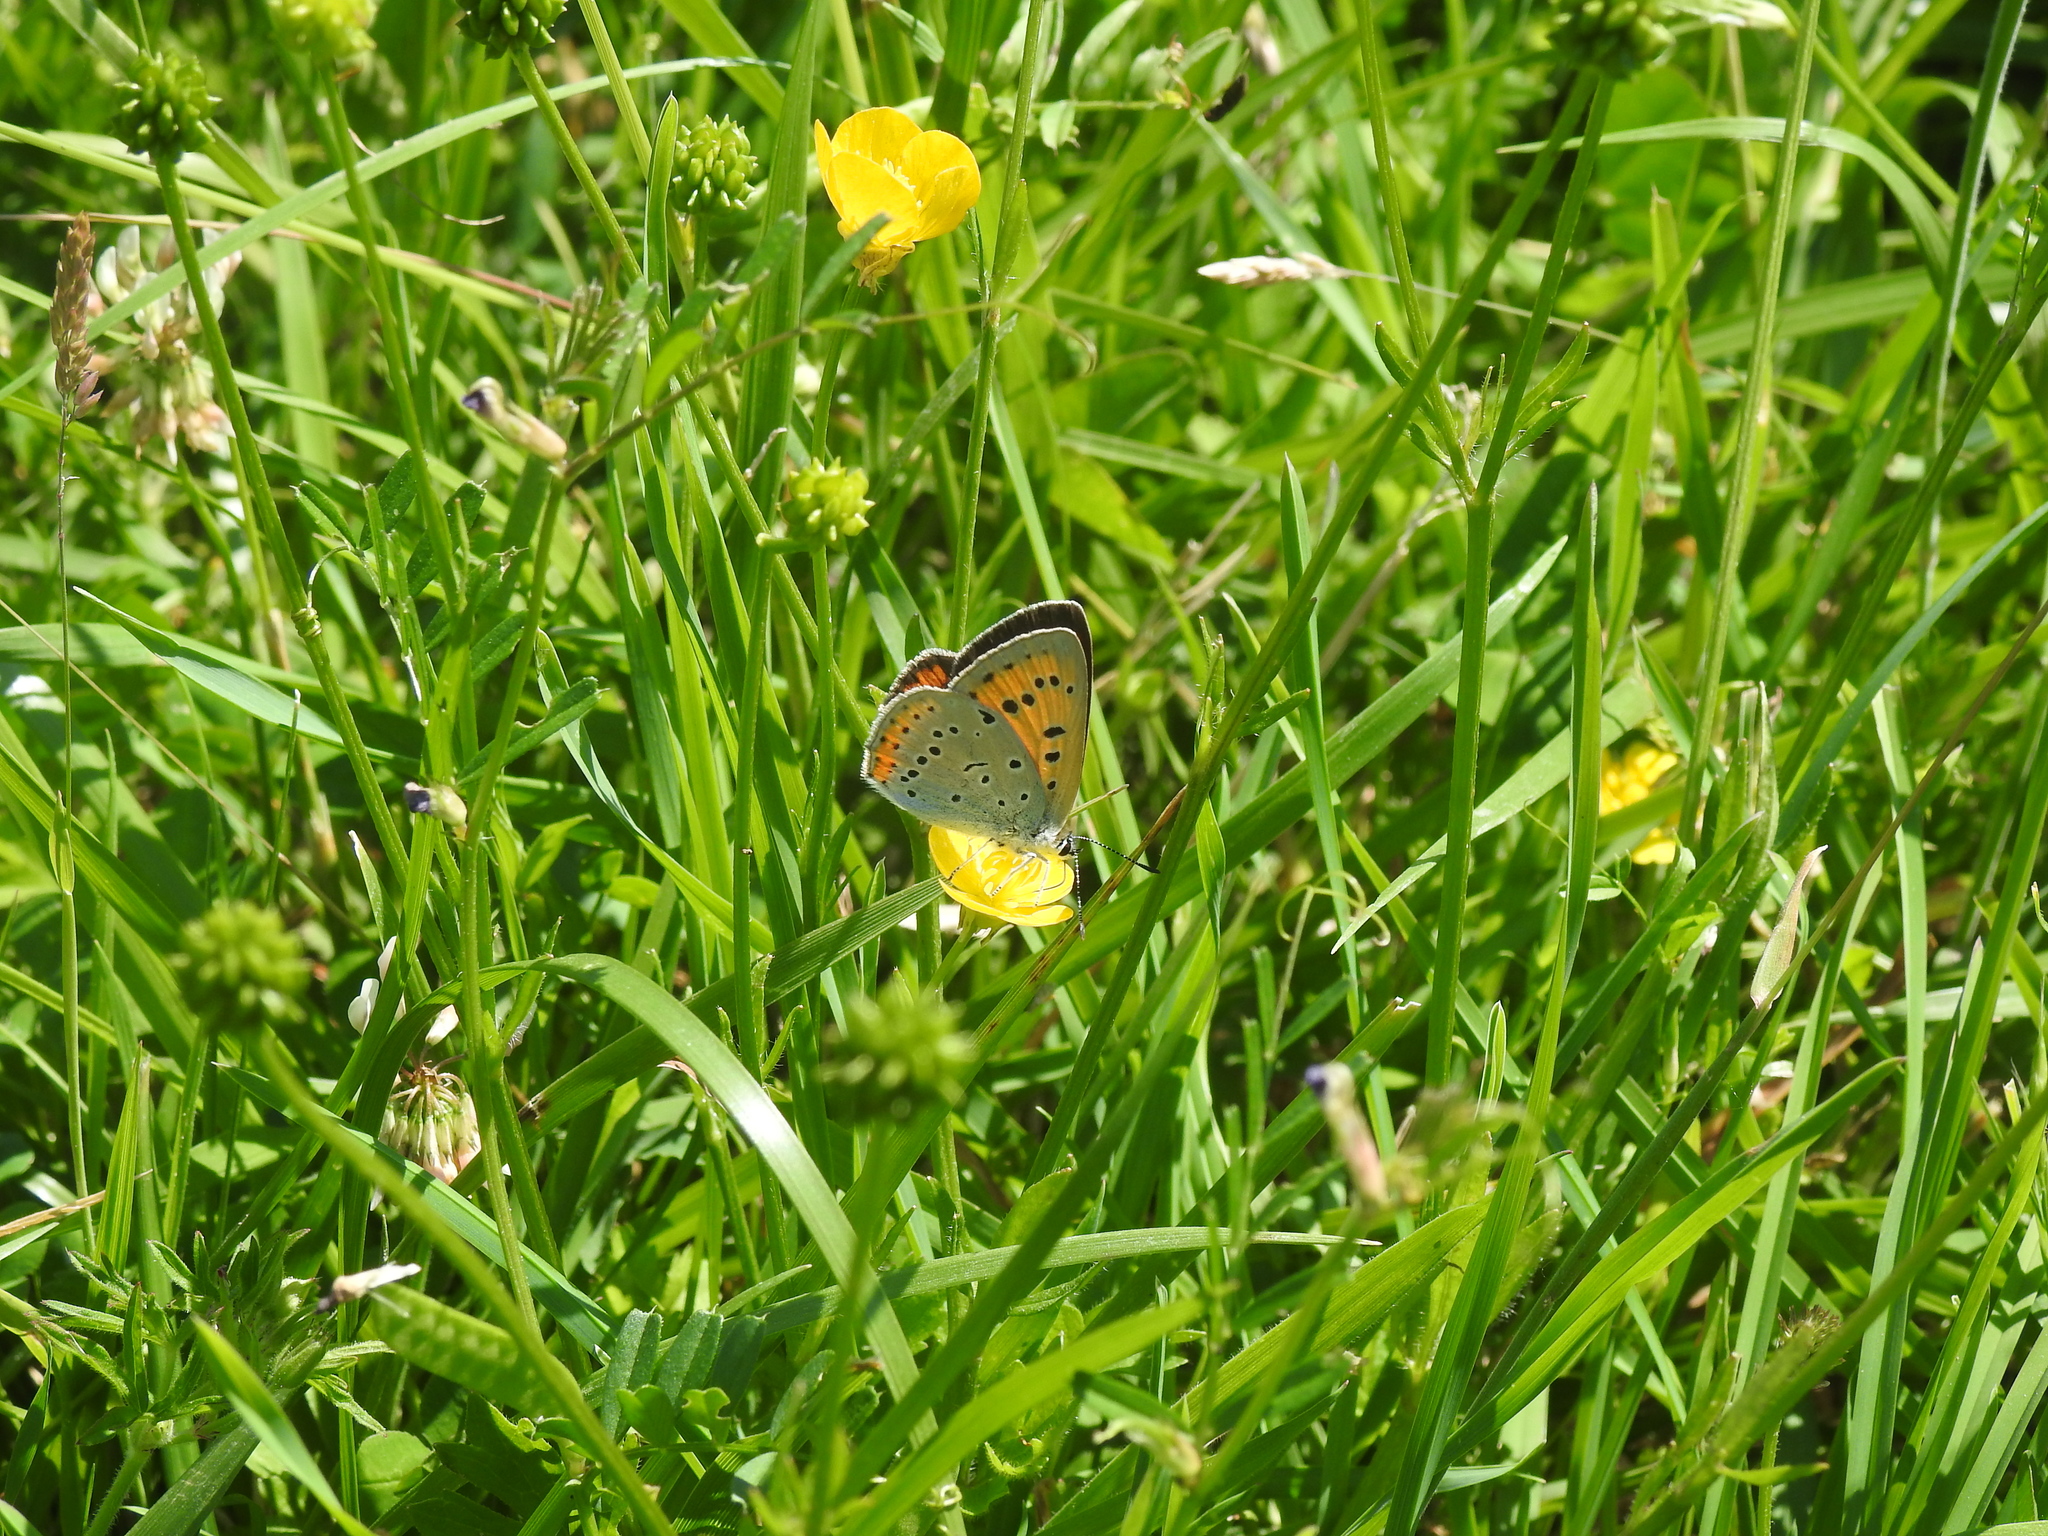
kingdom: Animalia
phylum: Arthropoda
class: Insecta
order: Lepidoptera
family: Lycaenidae
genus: Lycaena
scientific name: Lycaena dispar
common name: Large copper
